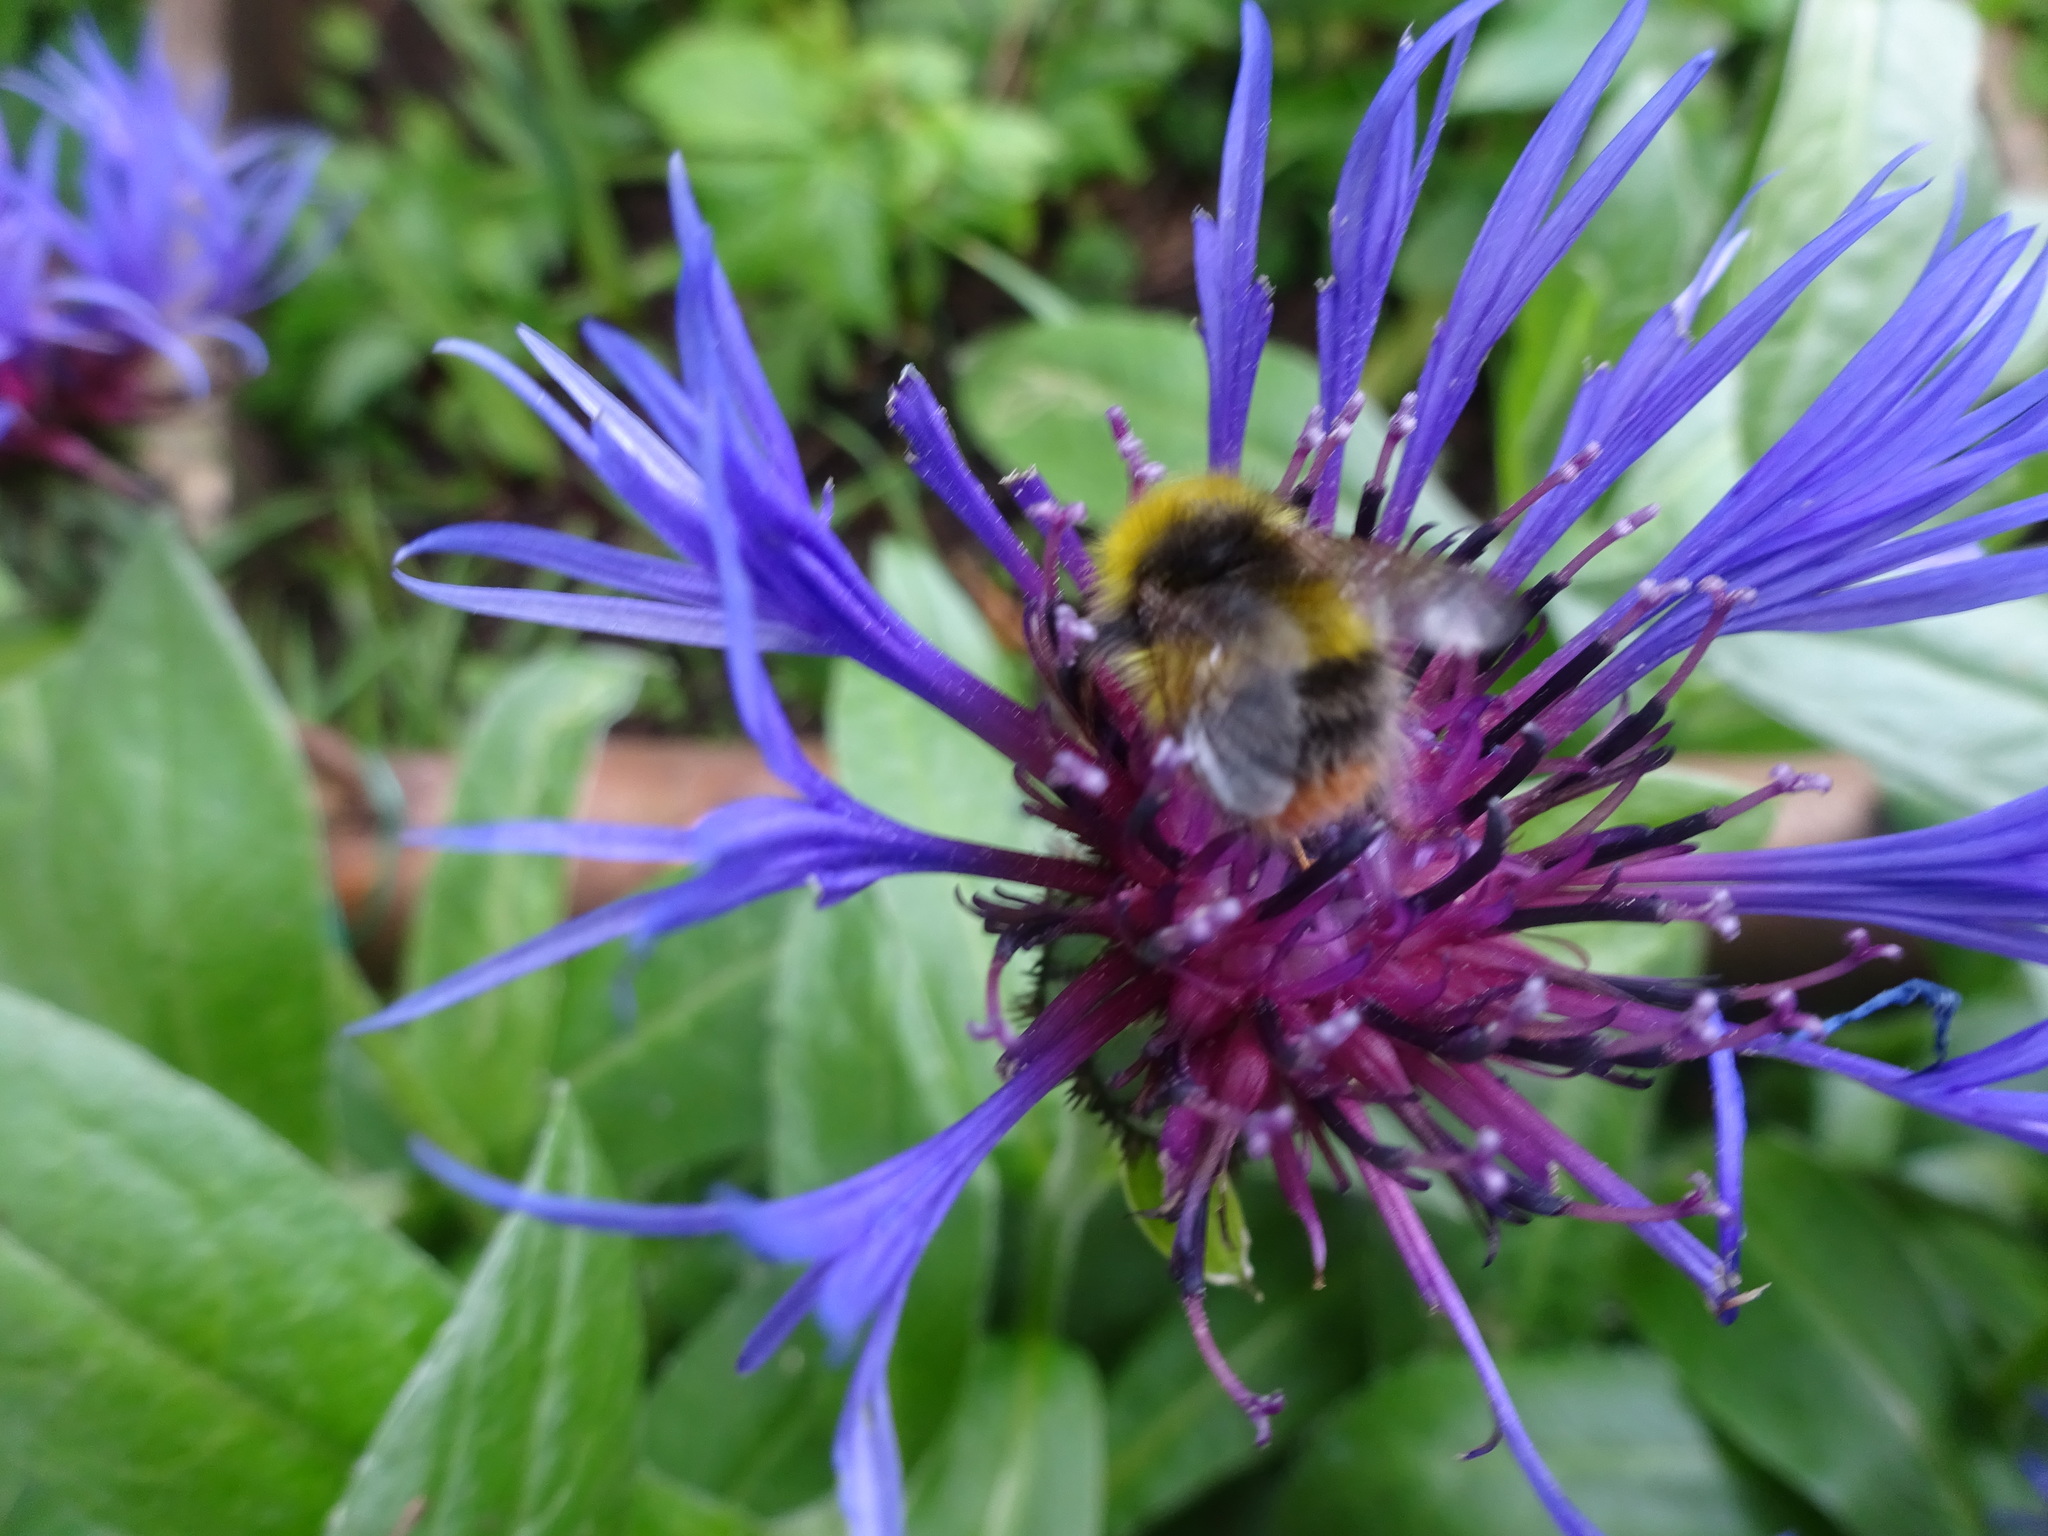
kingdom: Animalia
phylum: Arthropoda
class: Insecta
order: Hymenoptera
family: Apidae
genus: Bombus
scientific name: Bombus pratorum
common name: Early humble-bee
